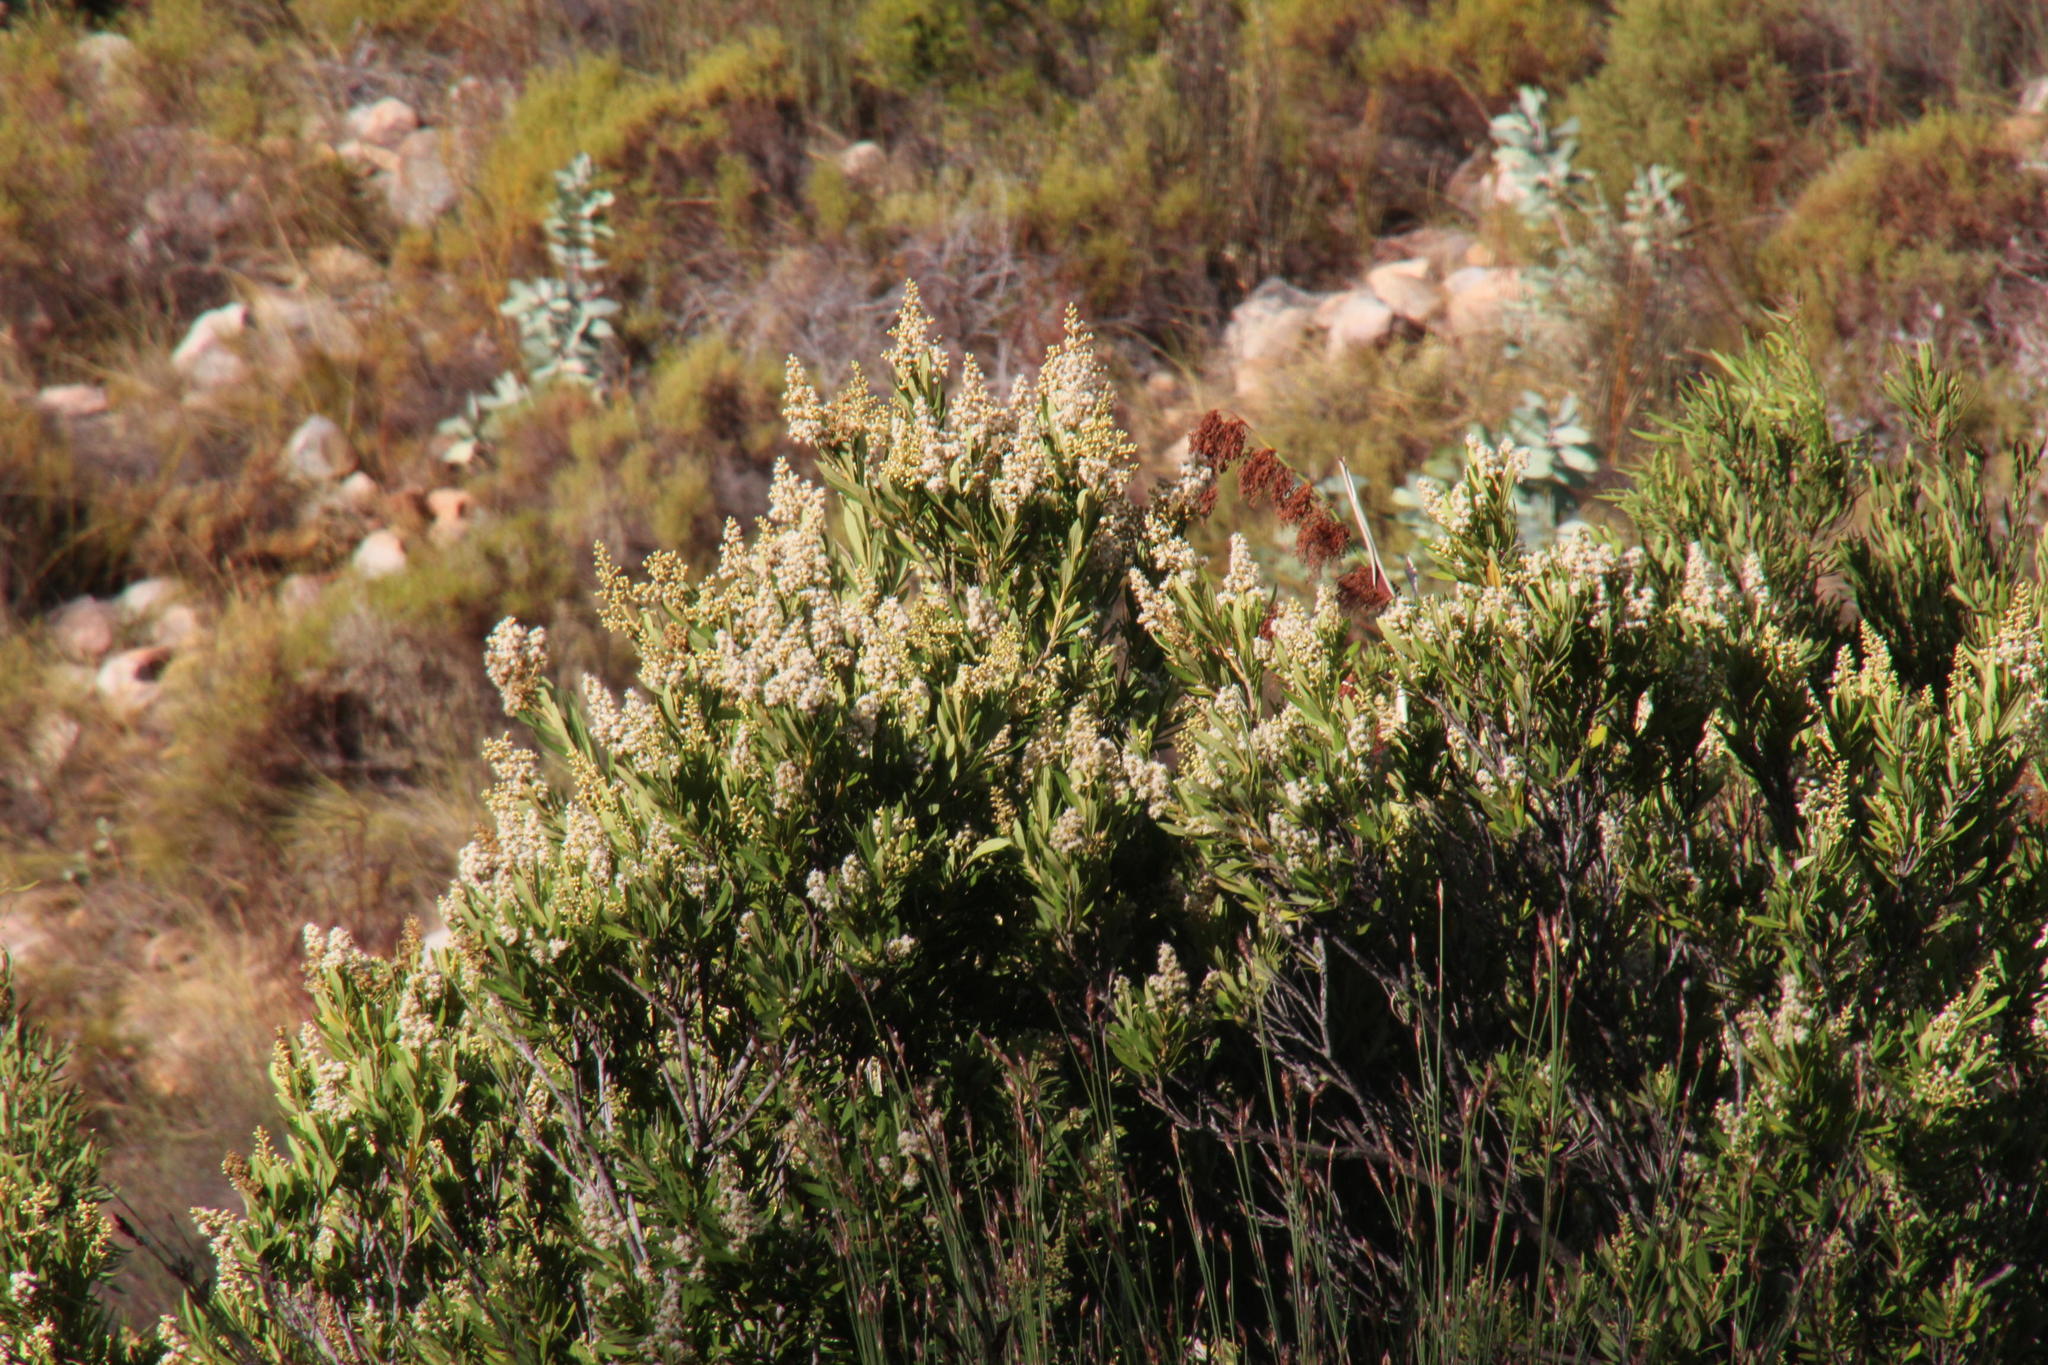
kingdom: Plantae
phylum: Tracheophyta
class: Magnoliopsida
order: Asterales
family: Asteraceae
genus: Brachylaena
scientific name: Brachylaena neriifolia
